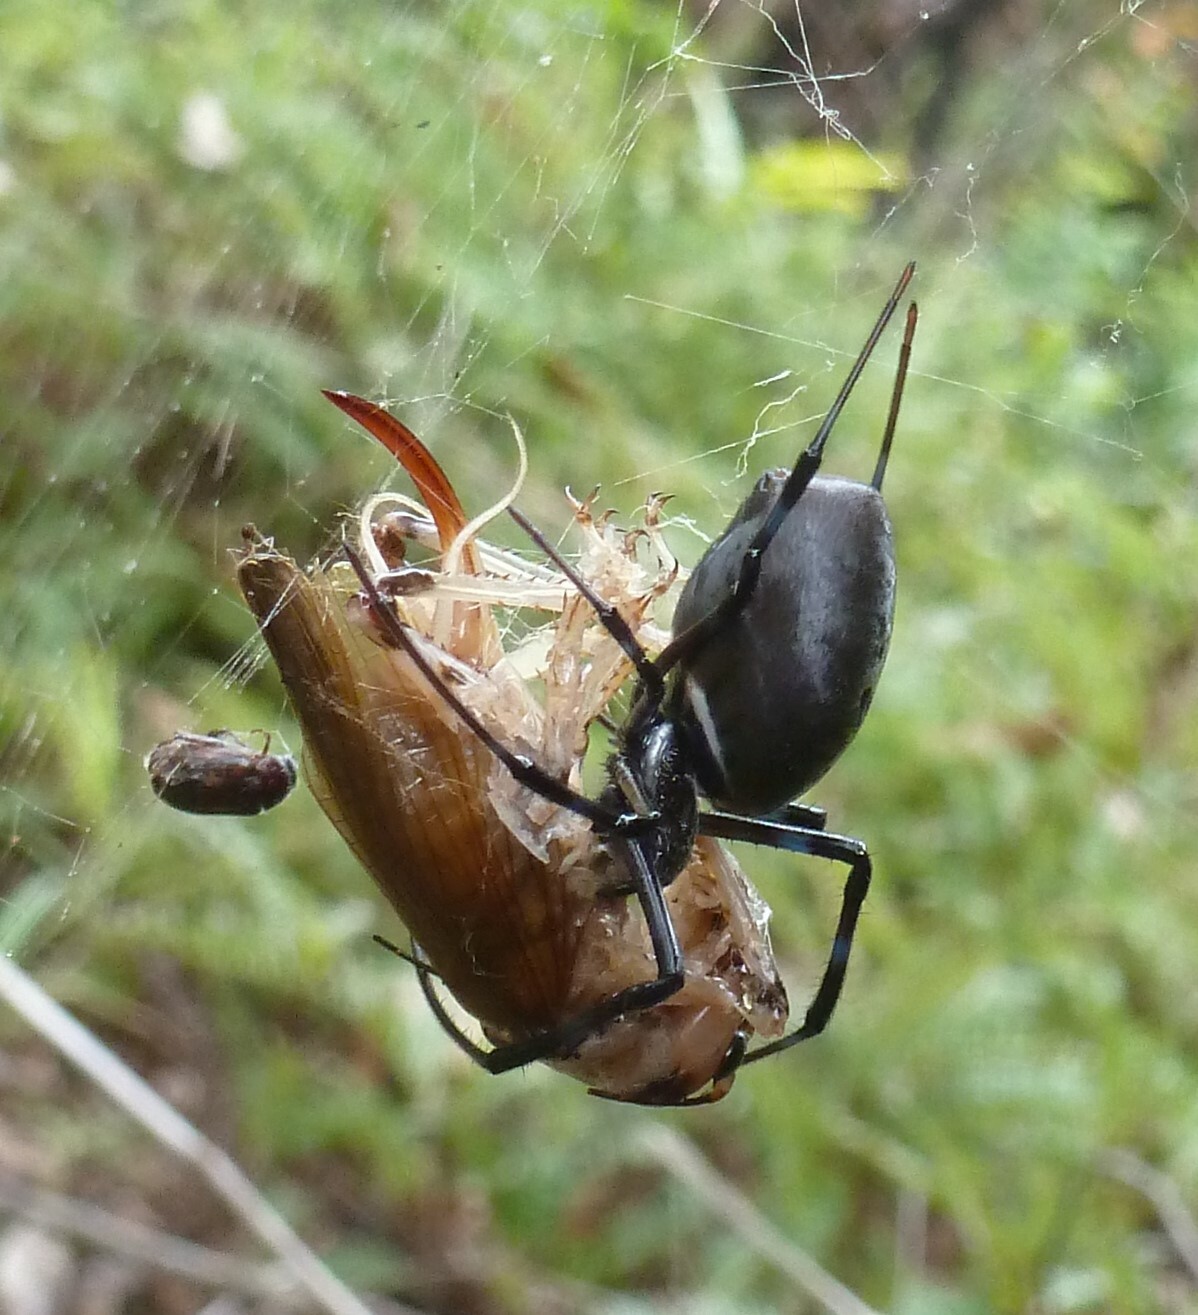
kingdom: Animalia
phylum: Arthropoda
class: Arachnida
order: Araneae
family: Araneidae
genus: Nephilingis
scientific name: Nephilingis livida
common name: Madagascar hermit spider
